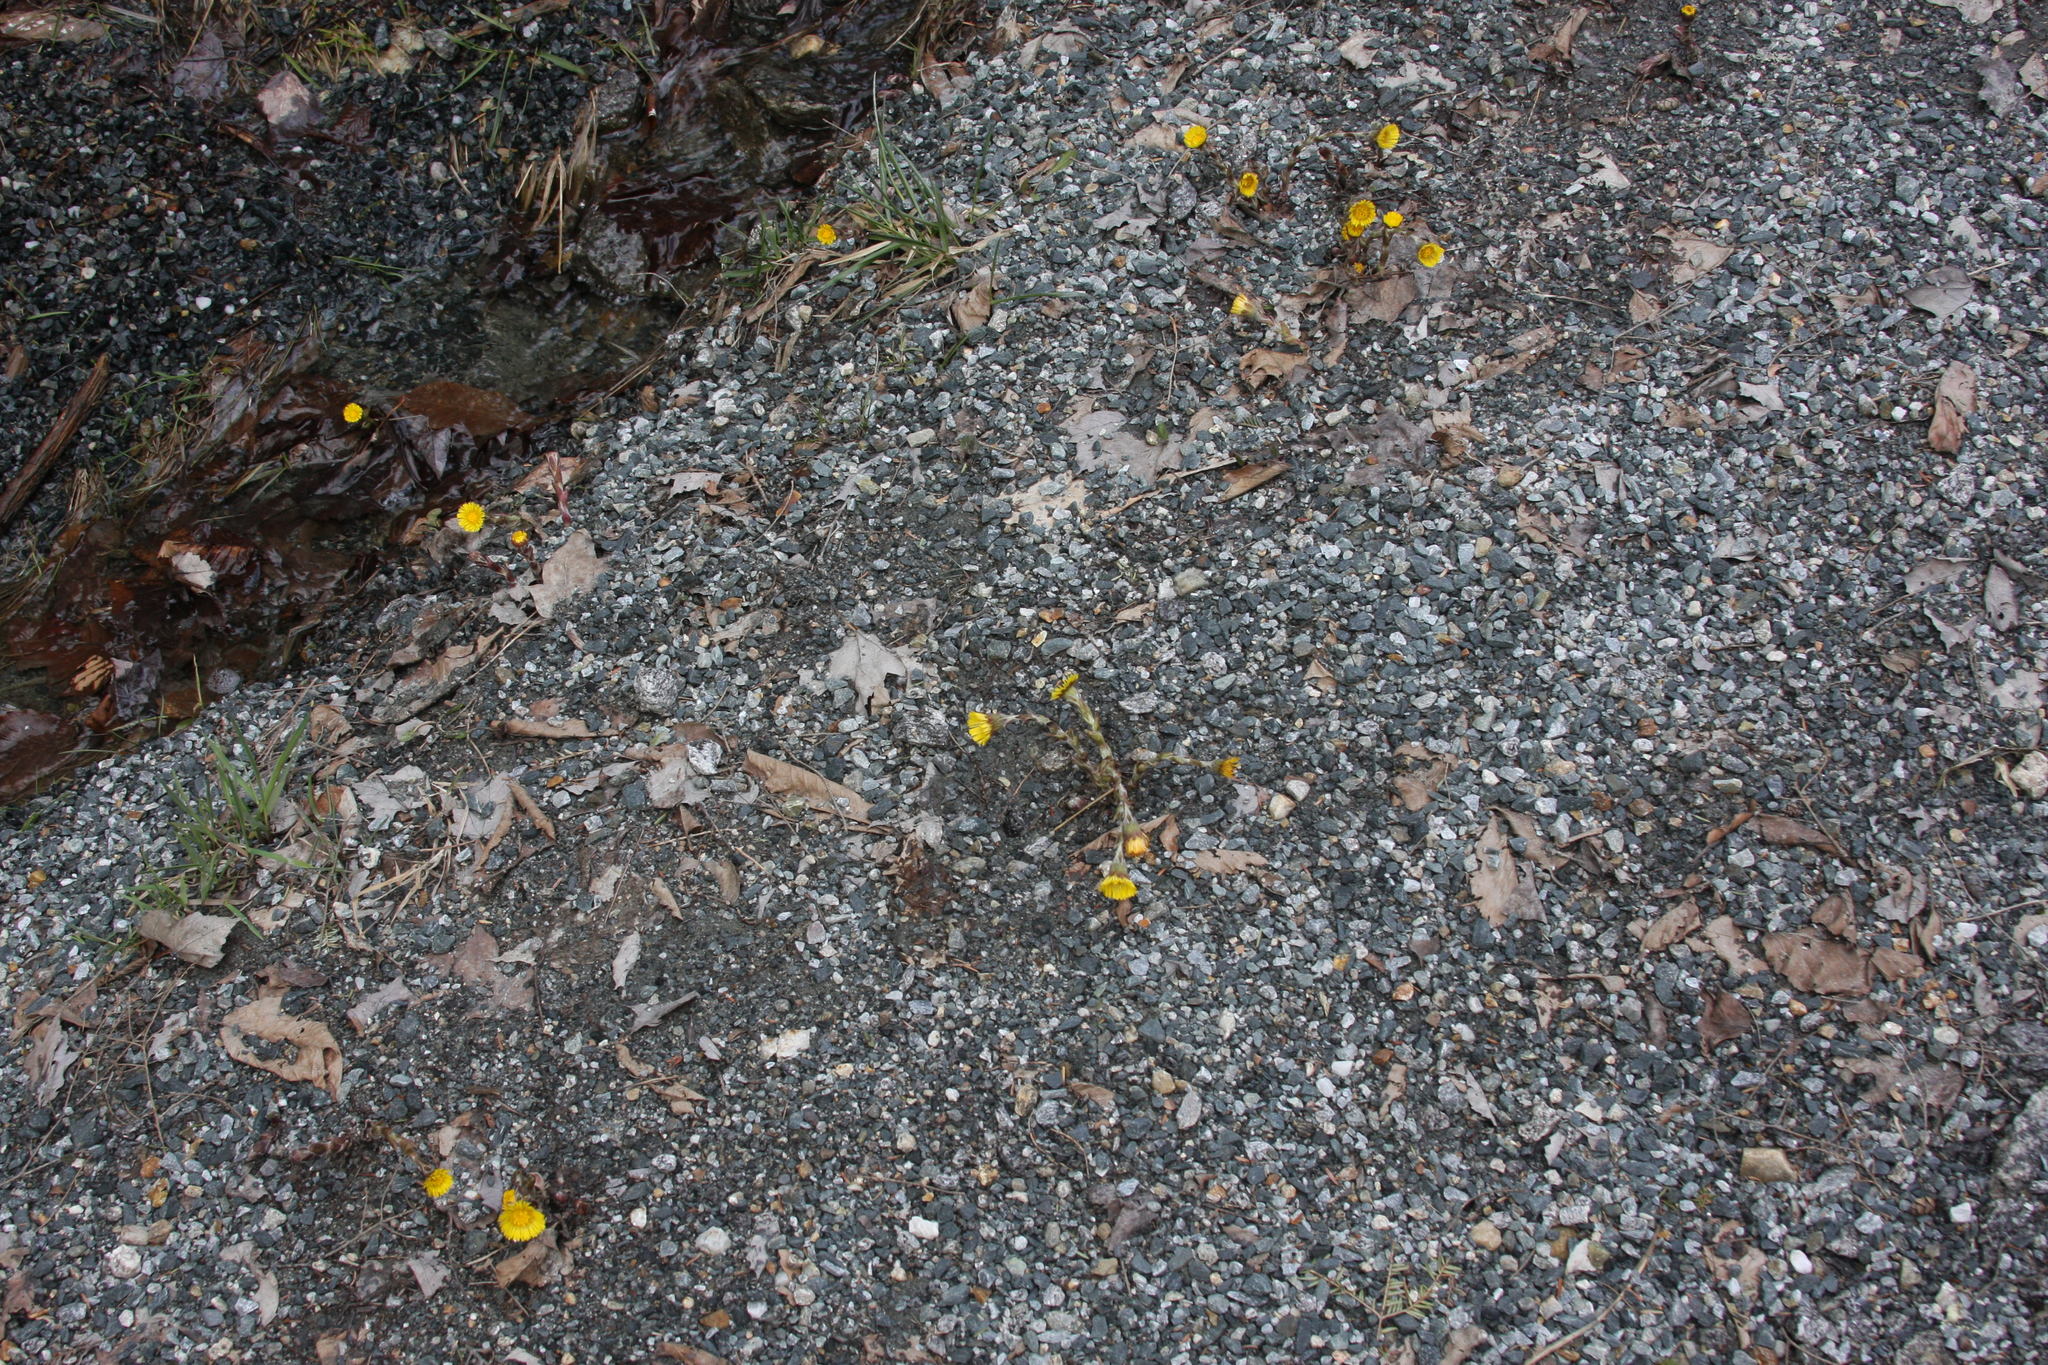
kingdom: Plantae
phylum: Tracheophyta
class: Magnoliopsida
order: Asterales
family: Asteraceae
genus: Tussilago
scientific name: Tussilago farfara
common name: Coltsfoot
